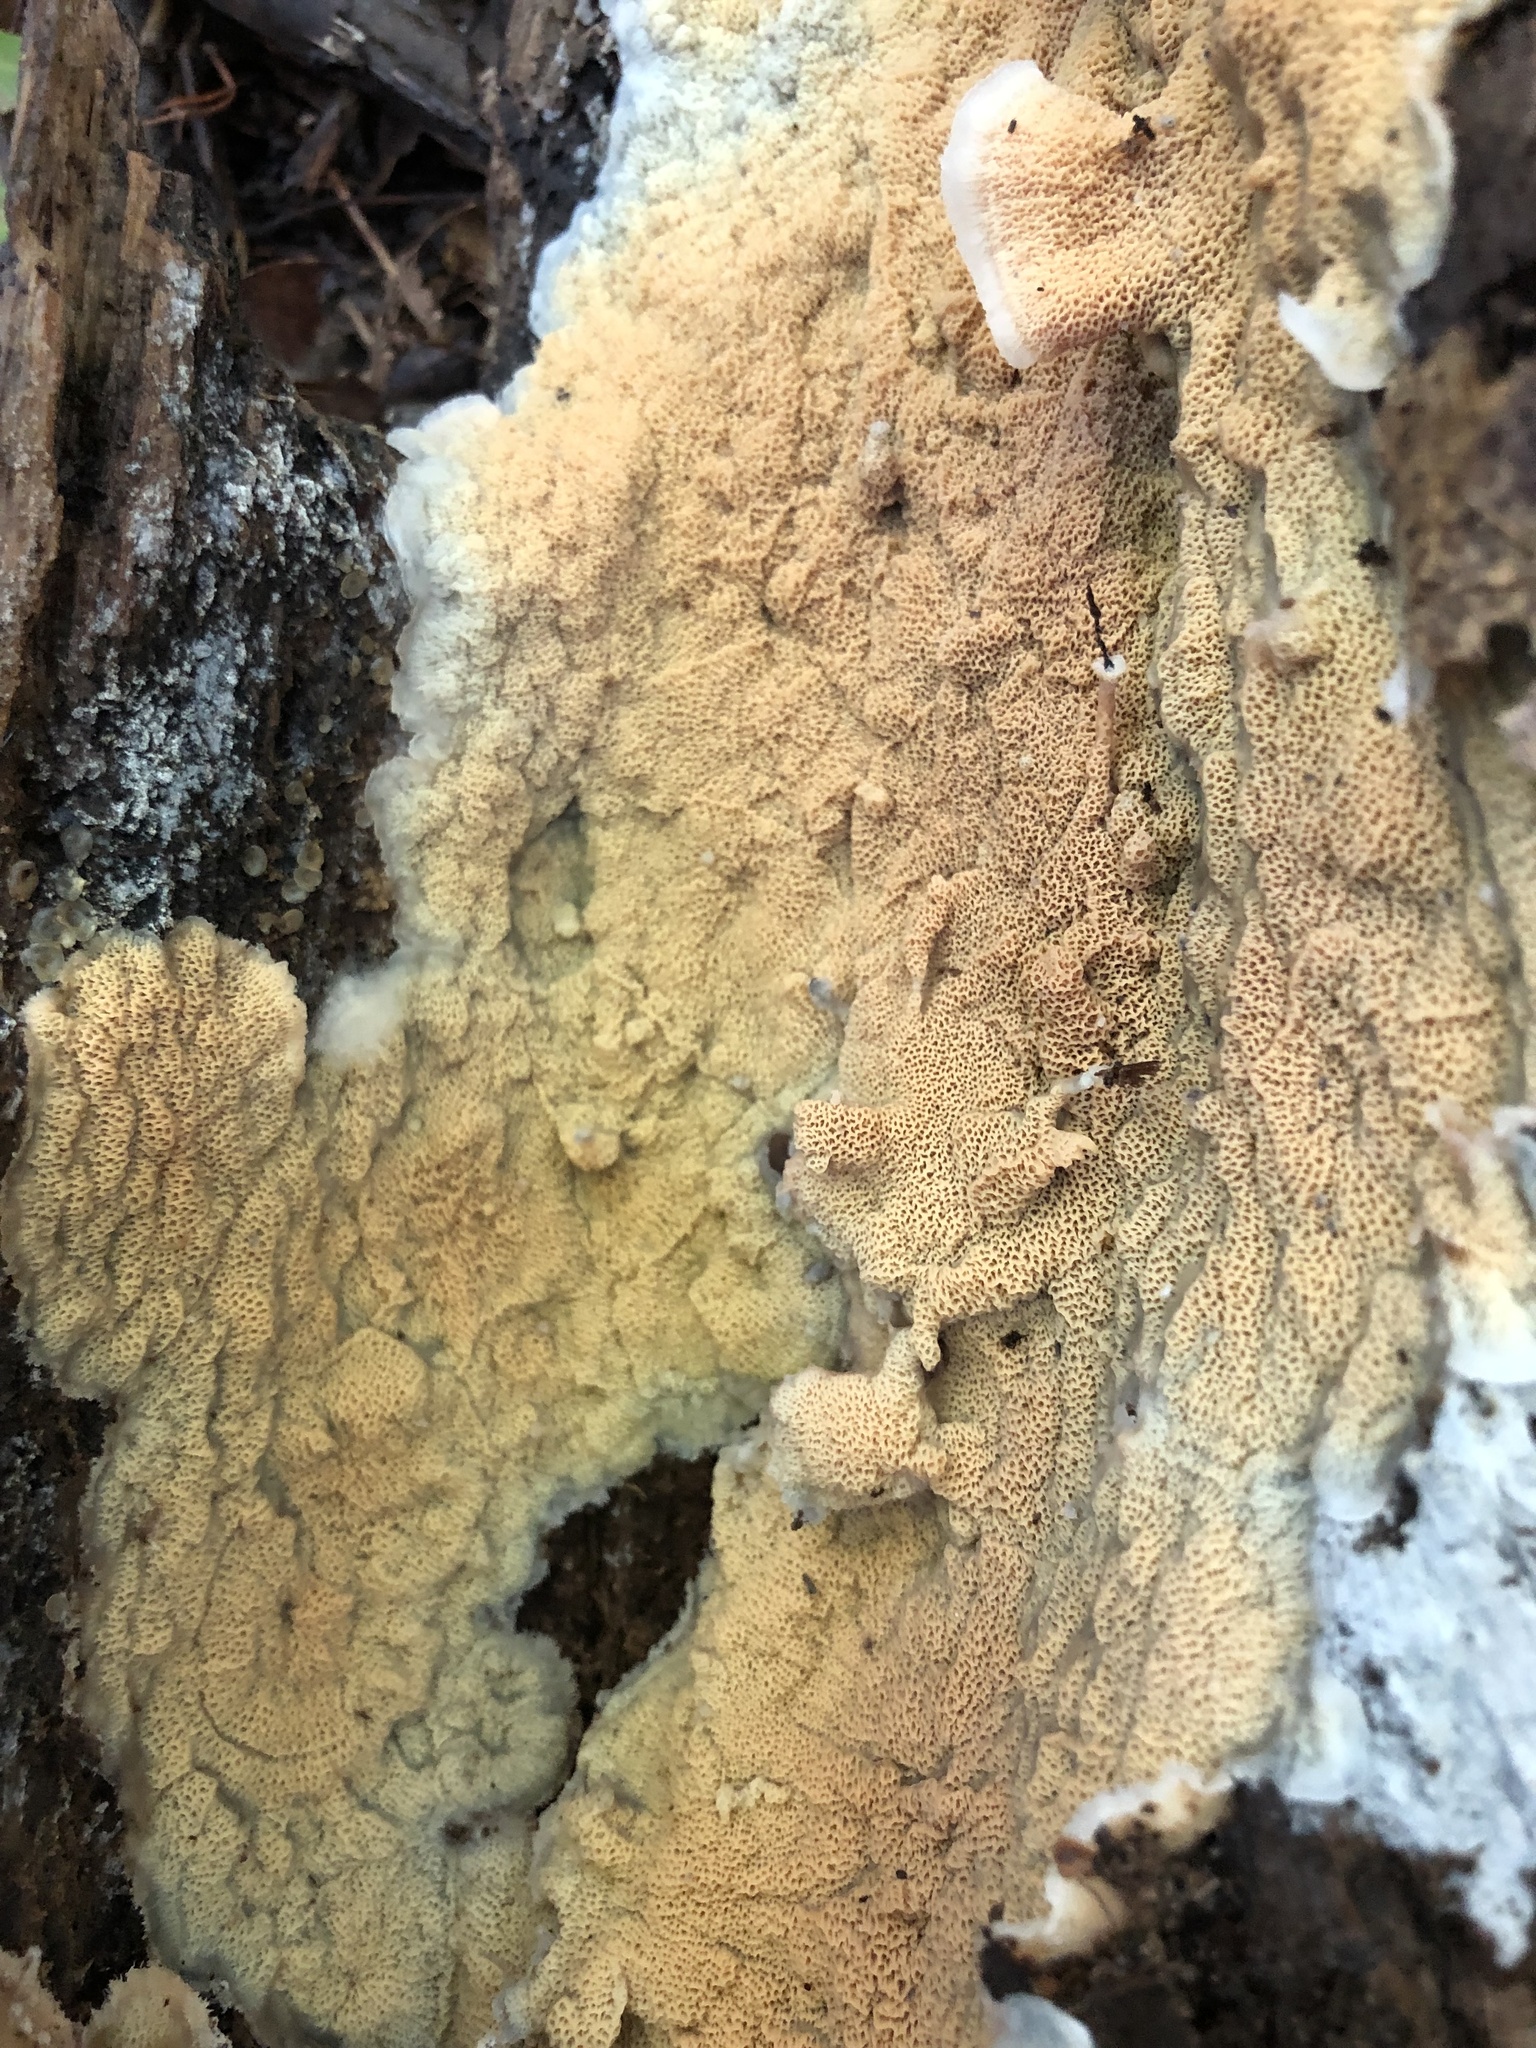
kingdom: Fungi
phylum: Basidiomycota
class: Agaricomycetes
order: Polyporales
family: Meruliaceae
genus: Phlebia
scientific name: Phlebia tremellosa
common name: Jelly rot
